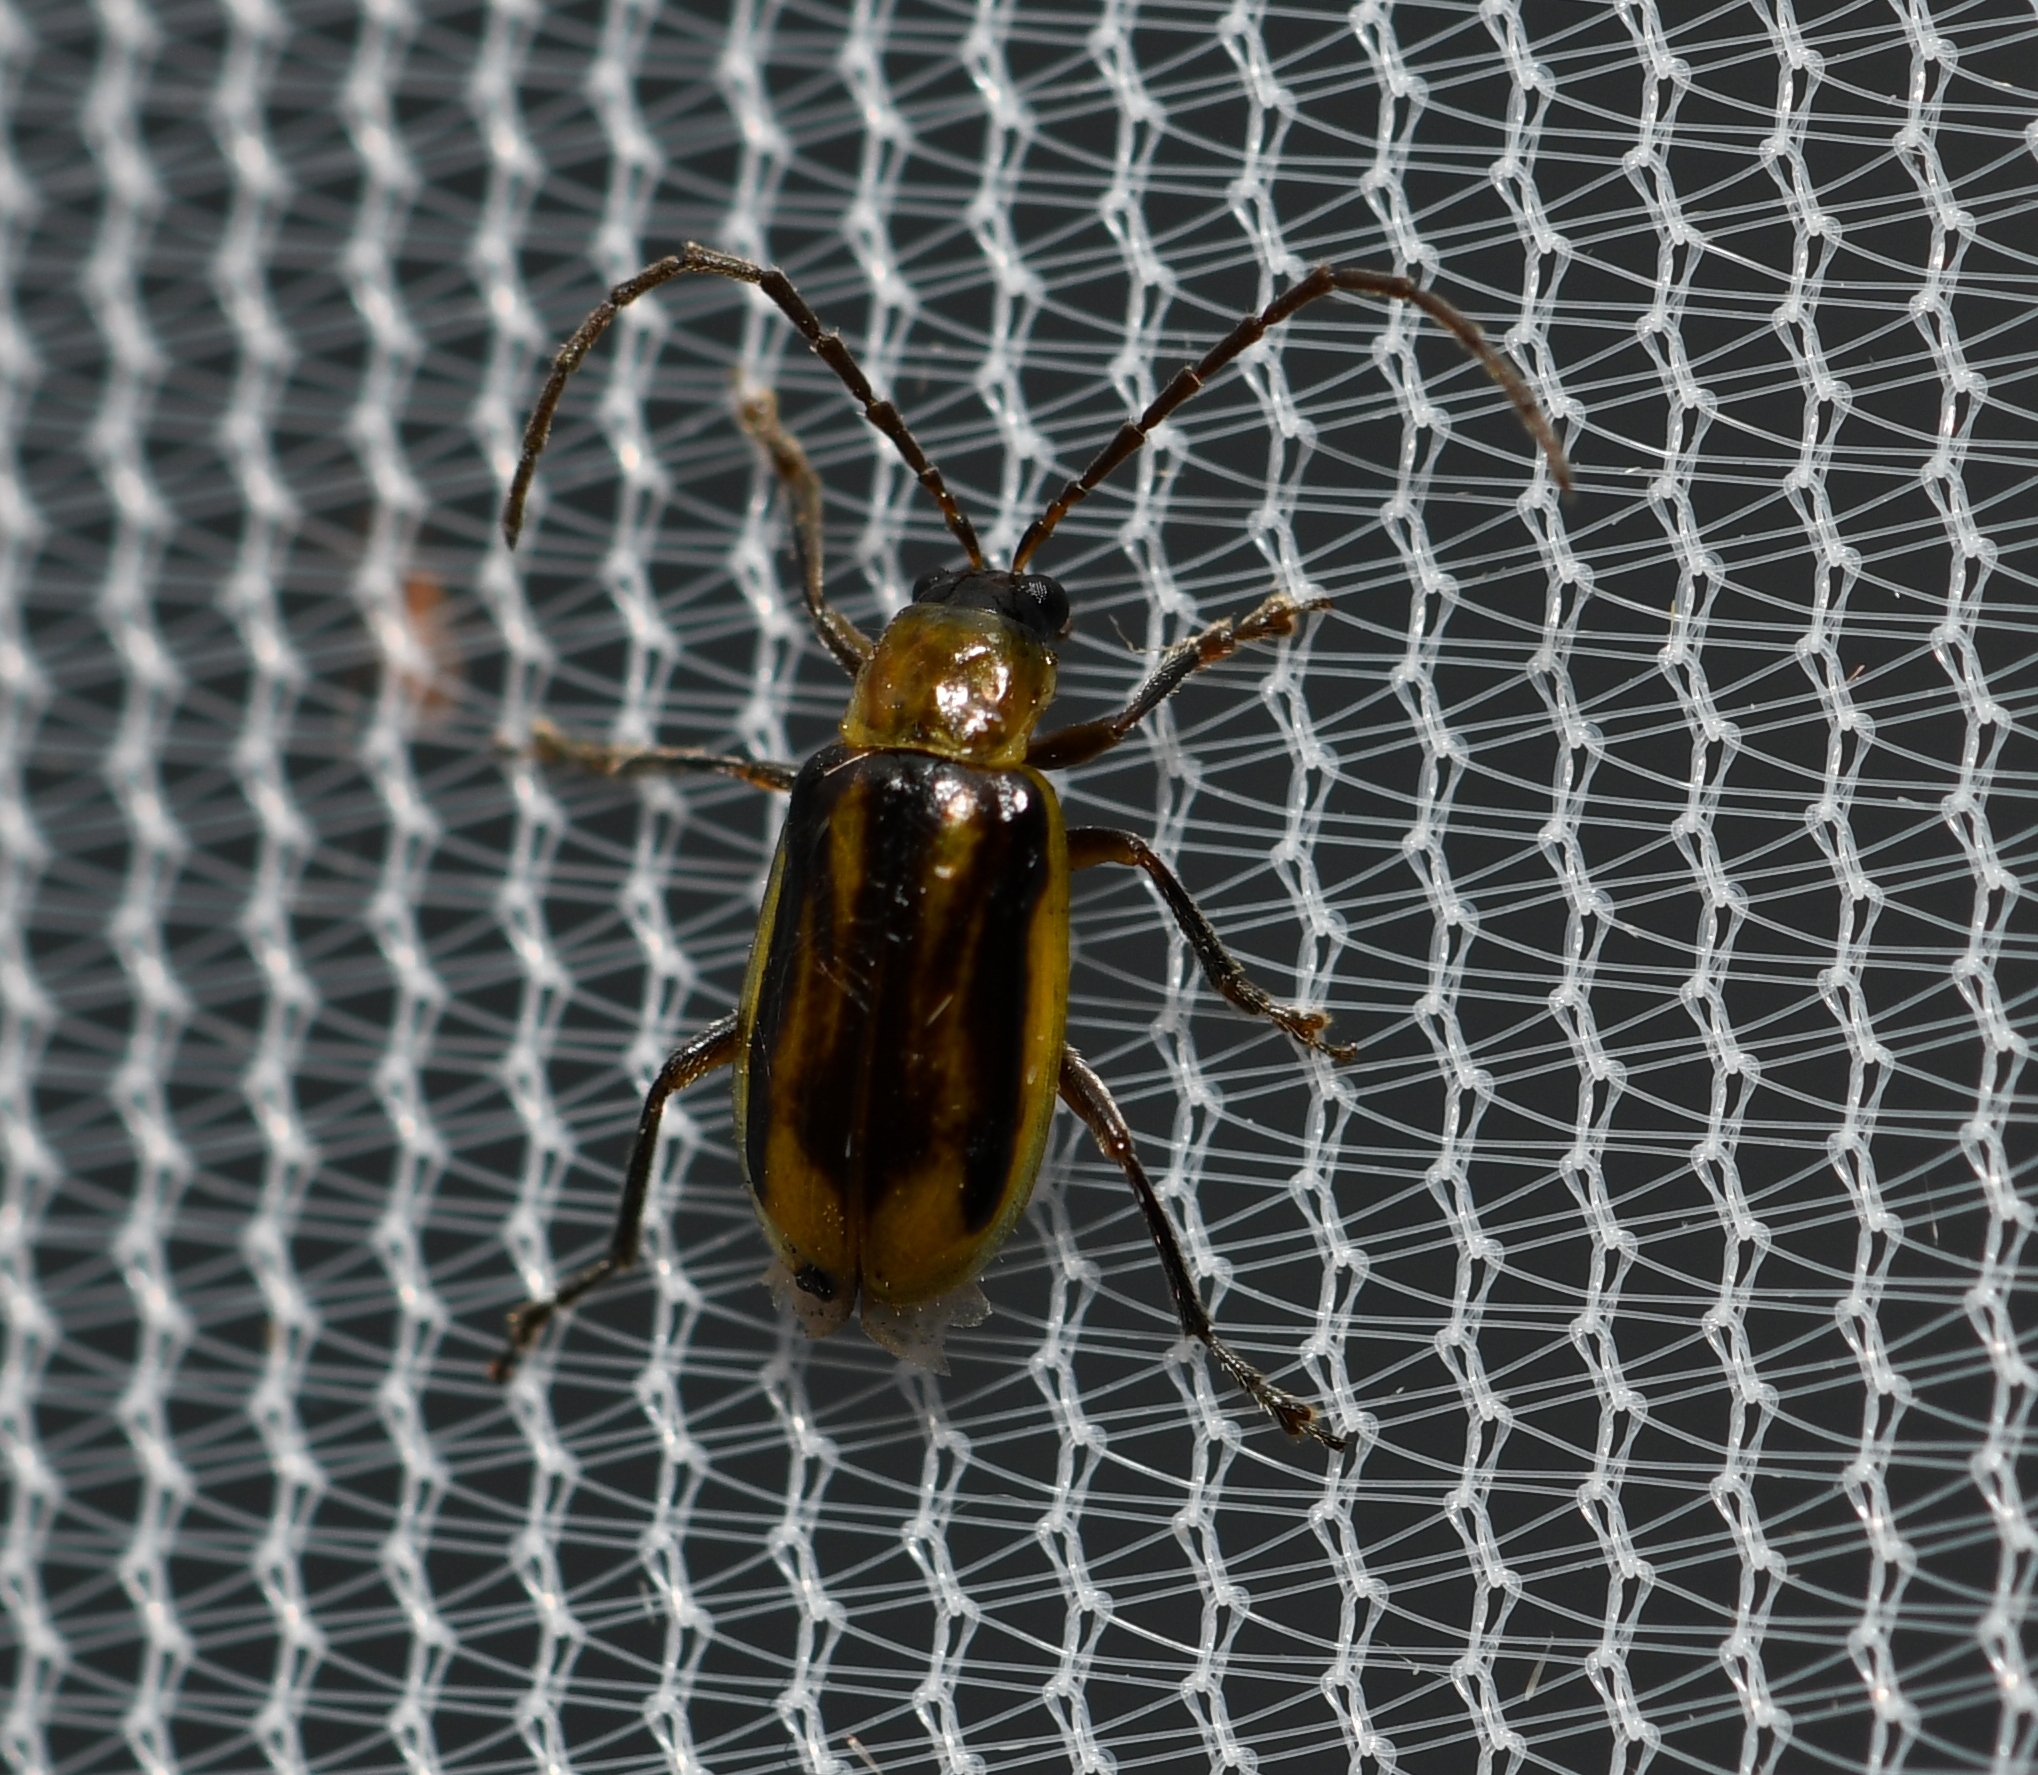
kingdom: Animalia
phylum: Arthropoda
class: Insecta
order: Coleoptera
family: Chrysomelidae
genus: Diabrotica
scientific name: Diabrotica virgifera
